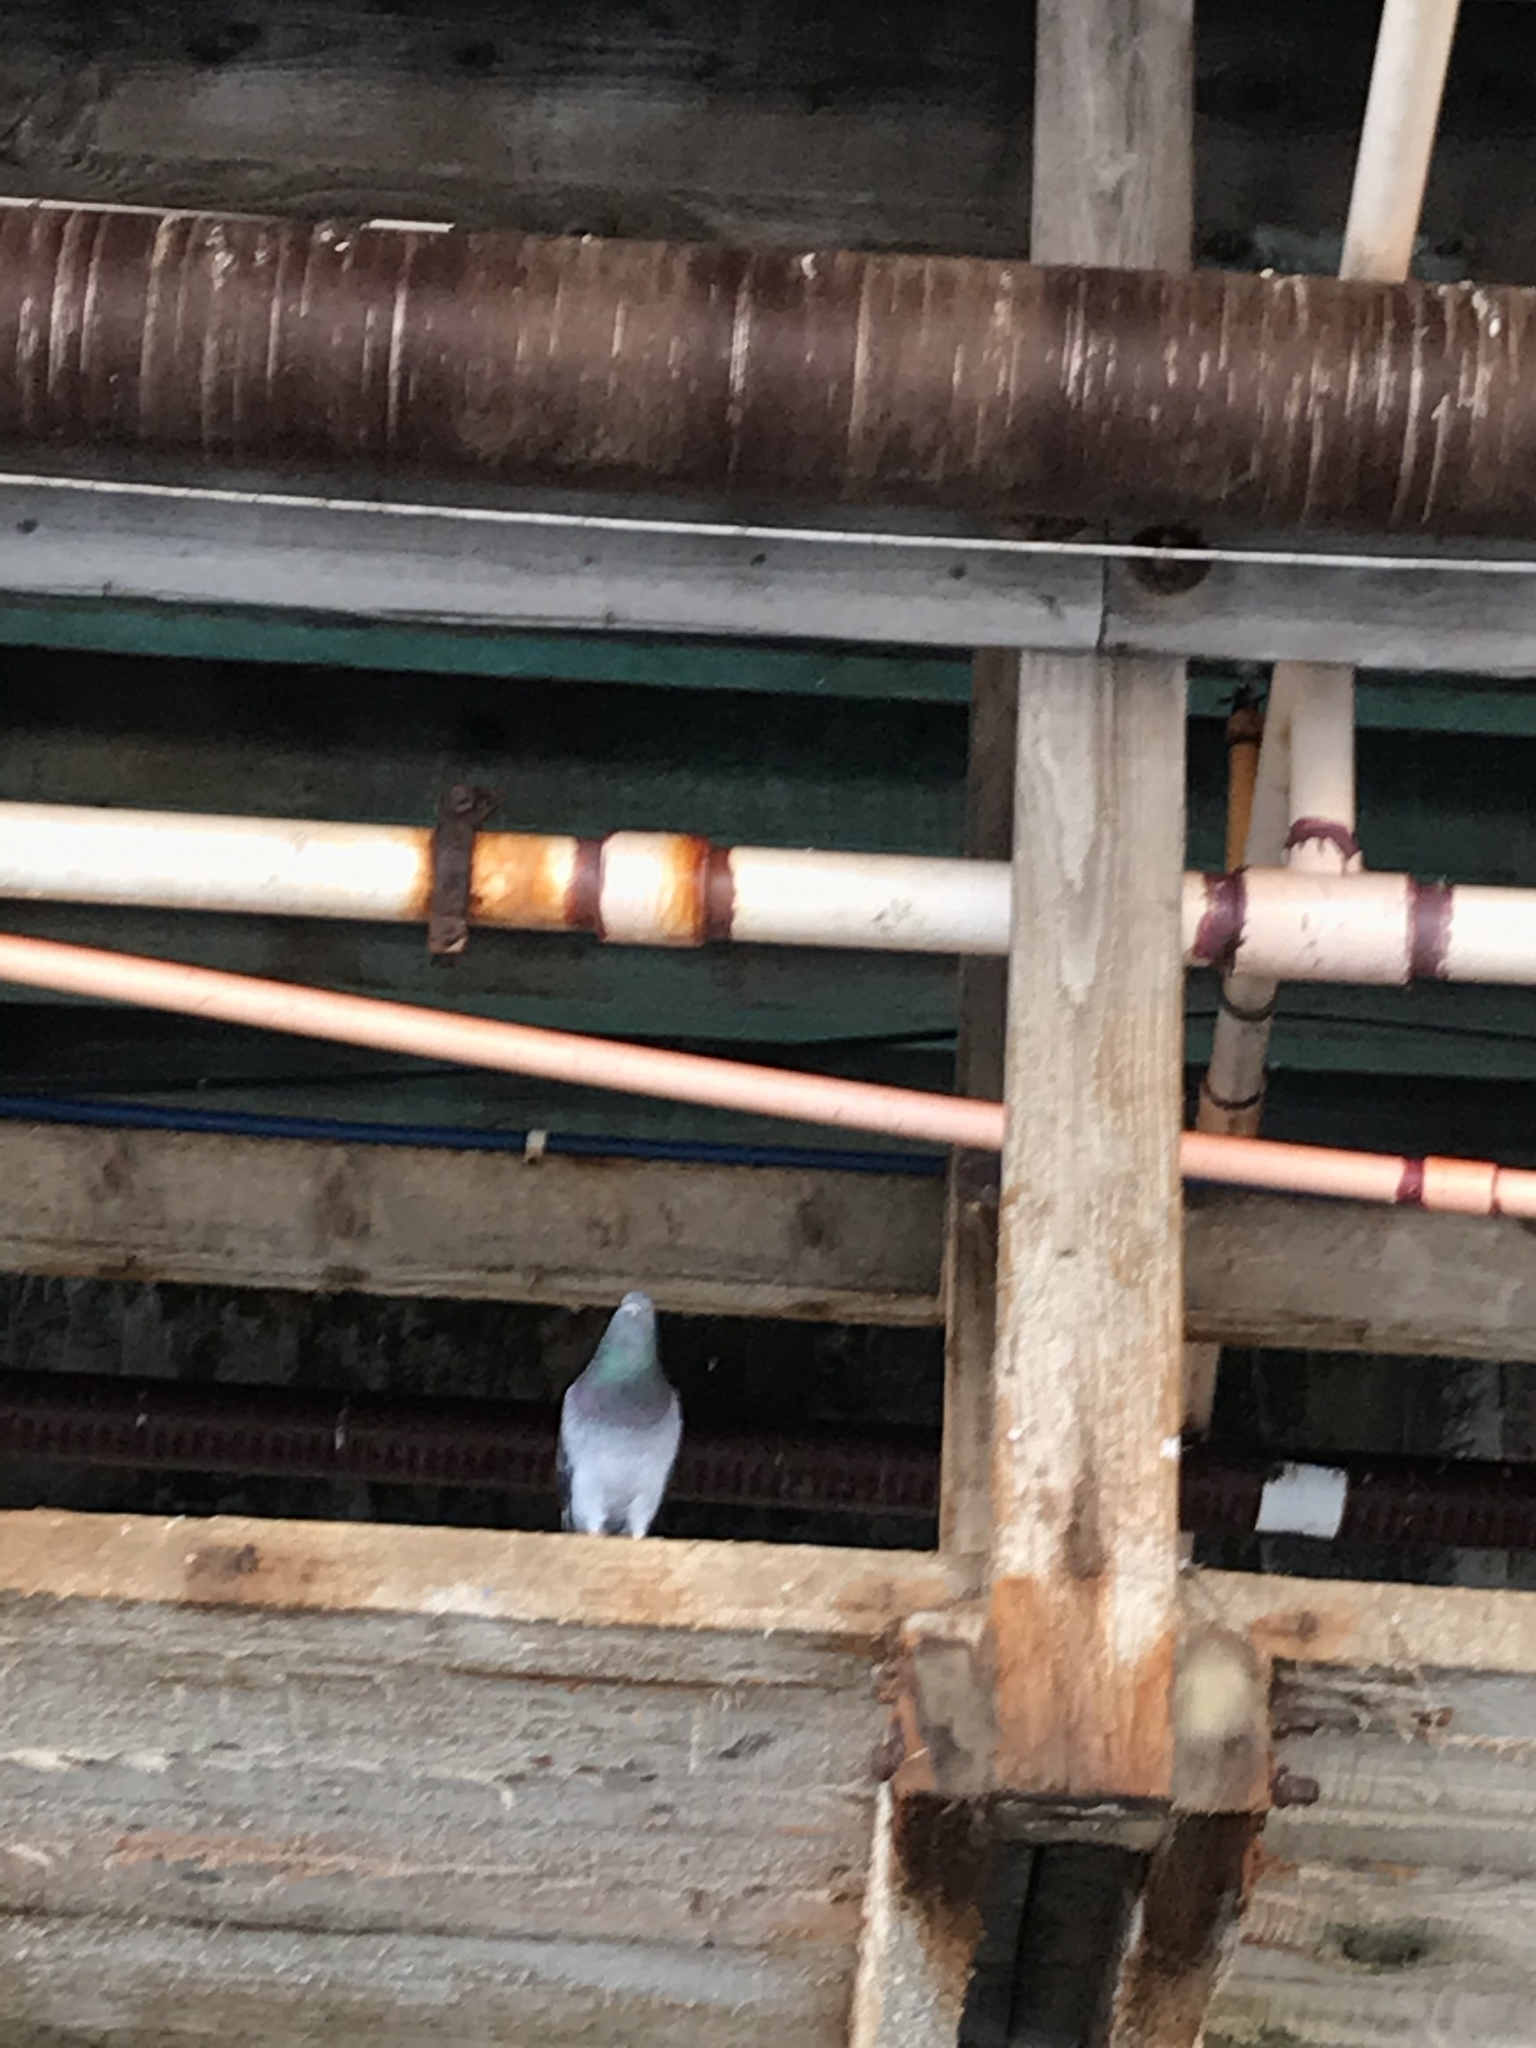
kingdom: Animalia
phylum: Chordata
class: Aves
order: Columbiformes
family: Columbidae
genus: Columba
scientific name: Columba livia
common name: Rock pigeon
